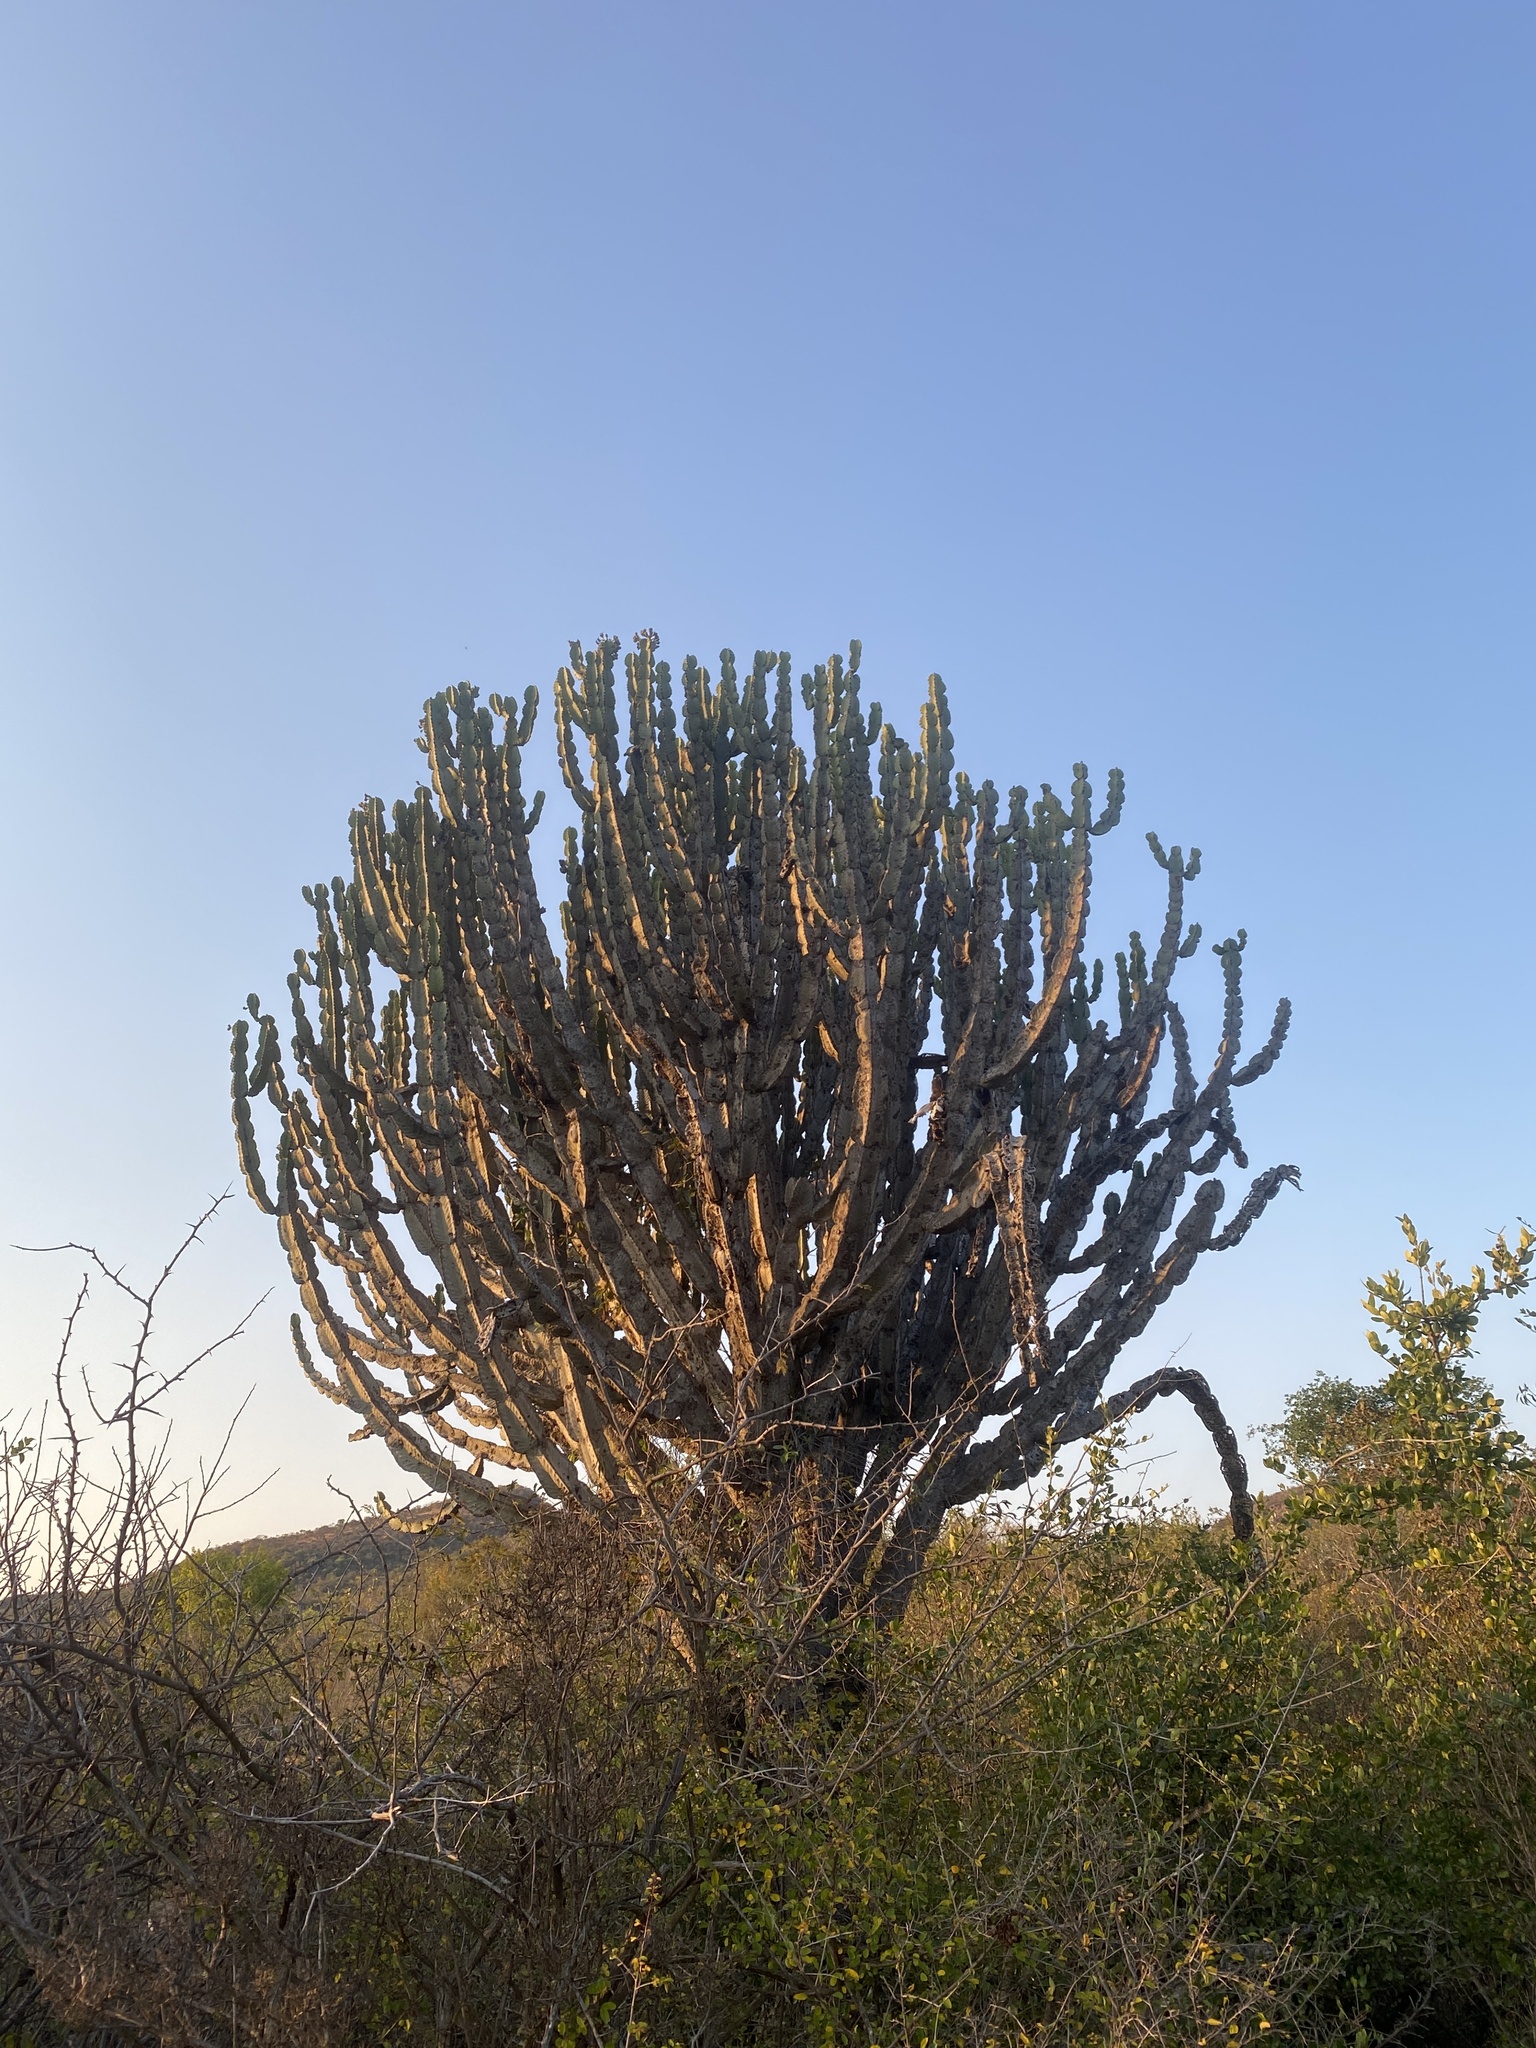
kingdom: Plantae
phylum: Tracheophyta
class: Magnoliopsida
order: Malpighiales
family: Euphorbiaceae
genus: Euphorbia
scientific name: Euphorbia ingens
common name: Cactus spurge
